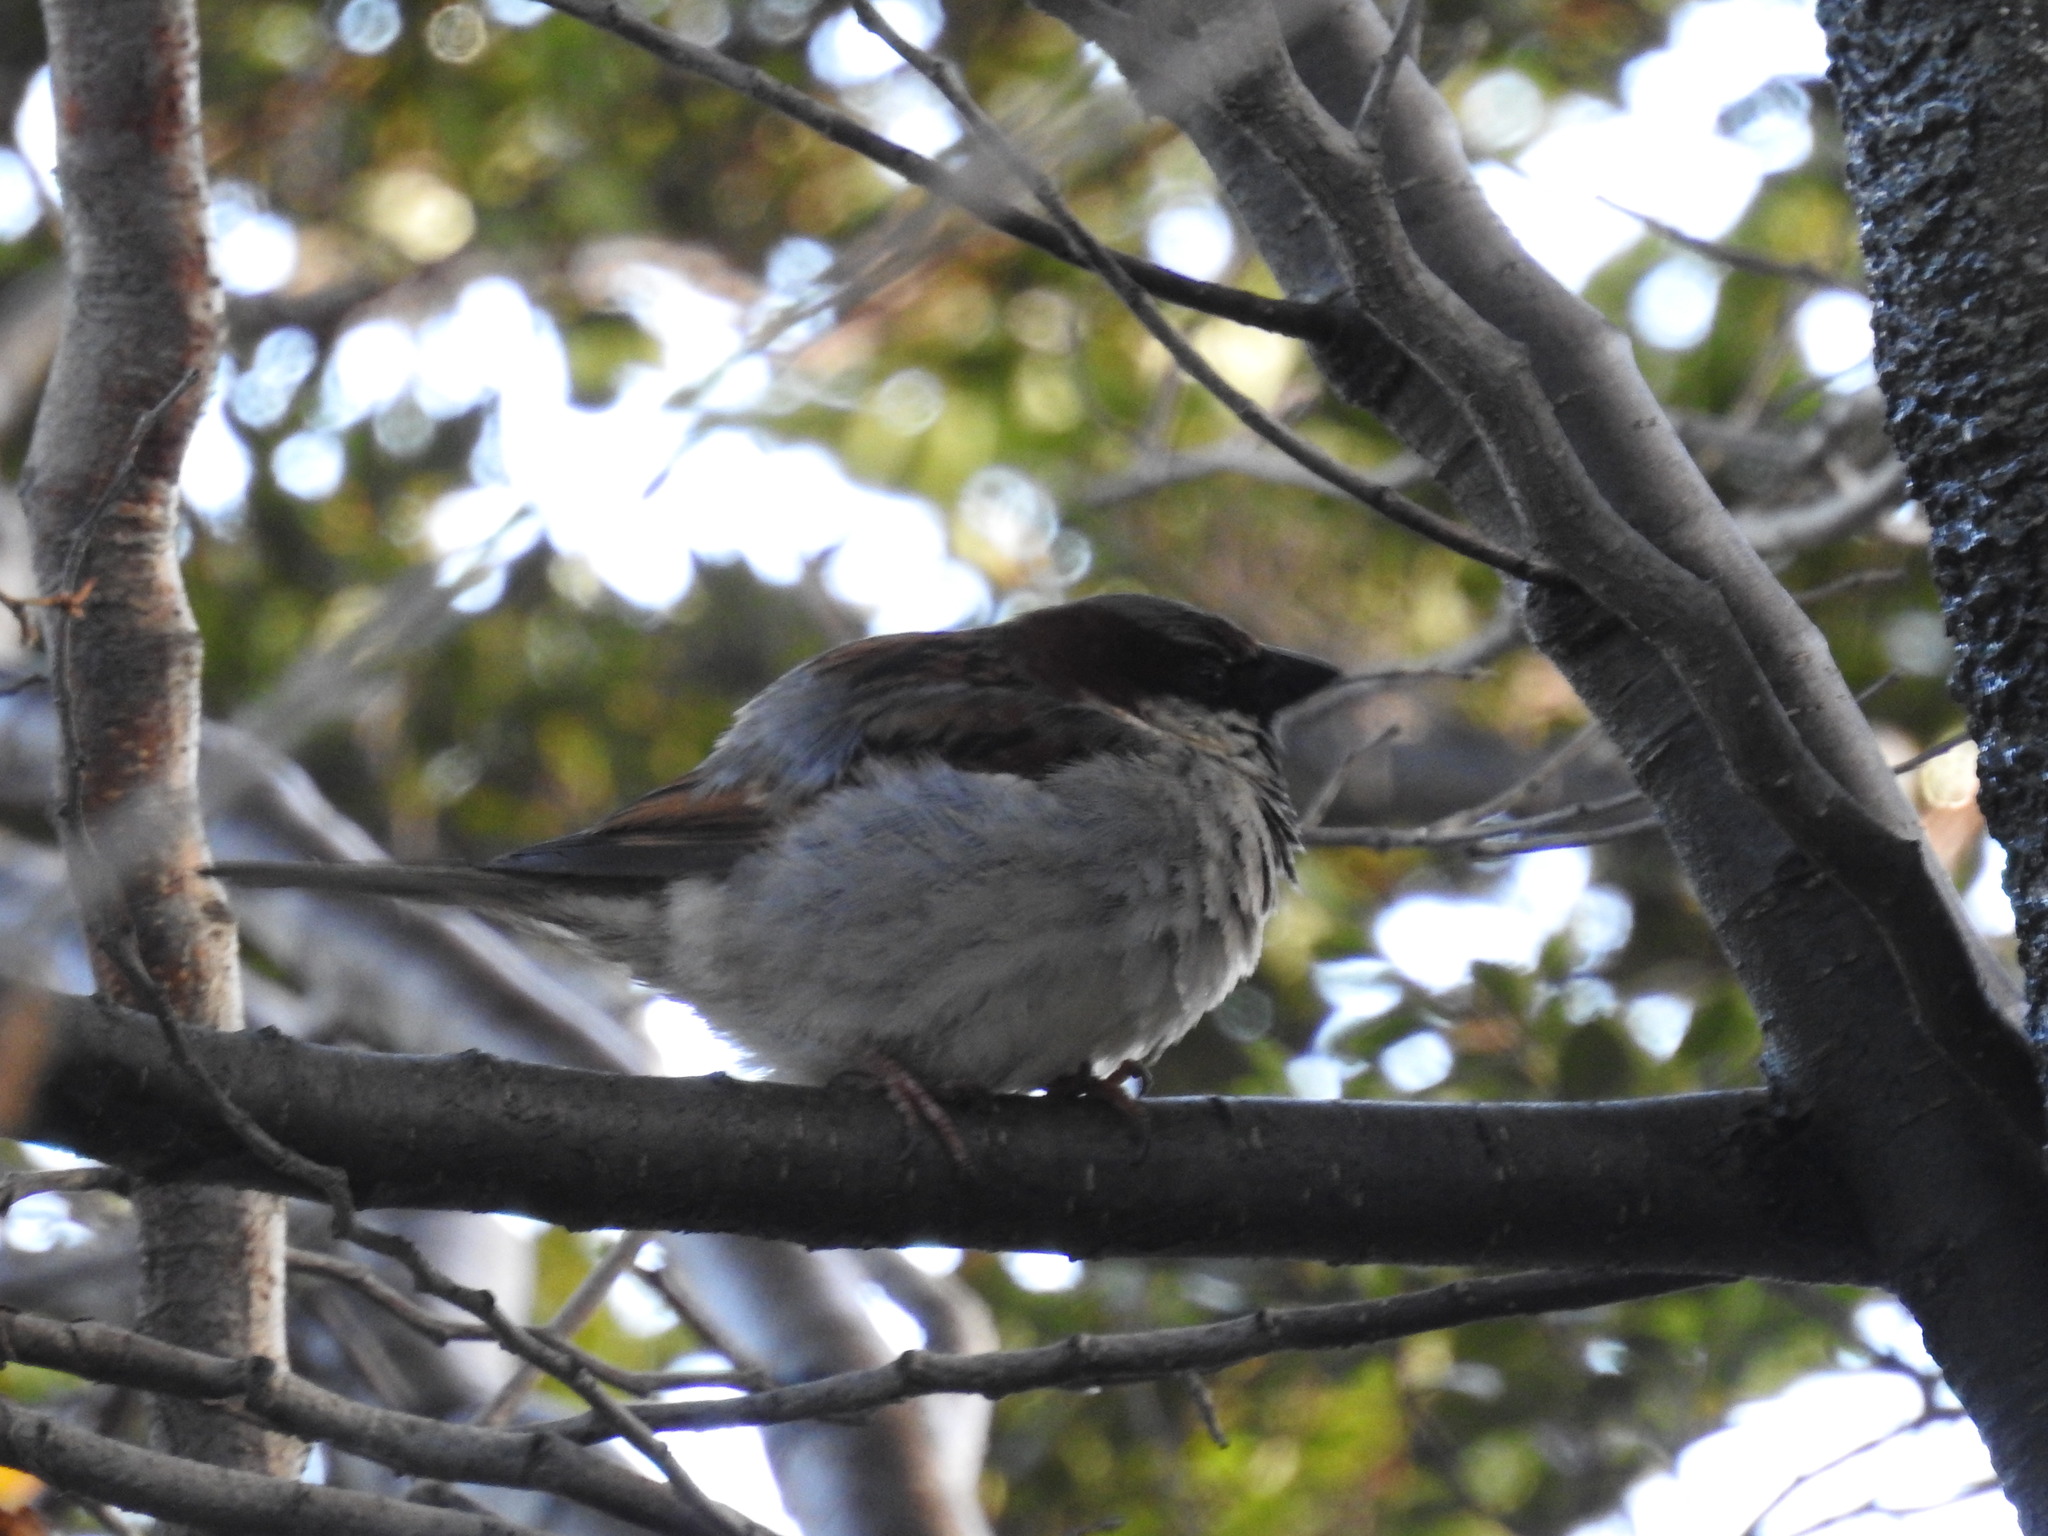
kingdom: Animalia
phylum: Chordata
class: Aves
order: Passeriformes
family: Passeridae
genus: Passer
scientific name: Passer domesticus
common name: House sparrow
